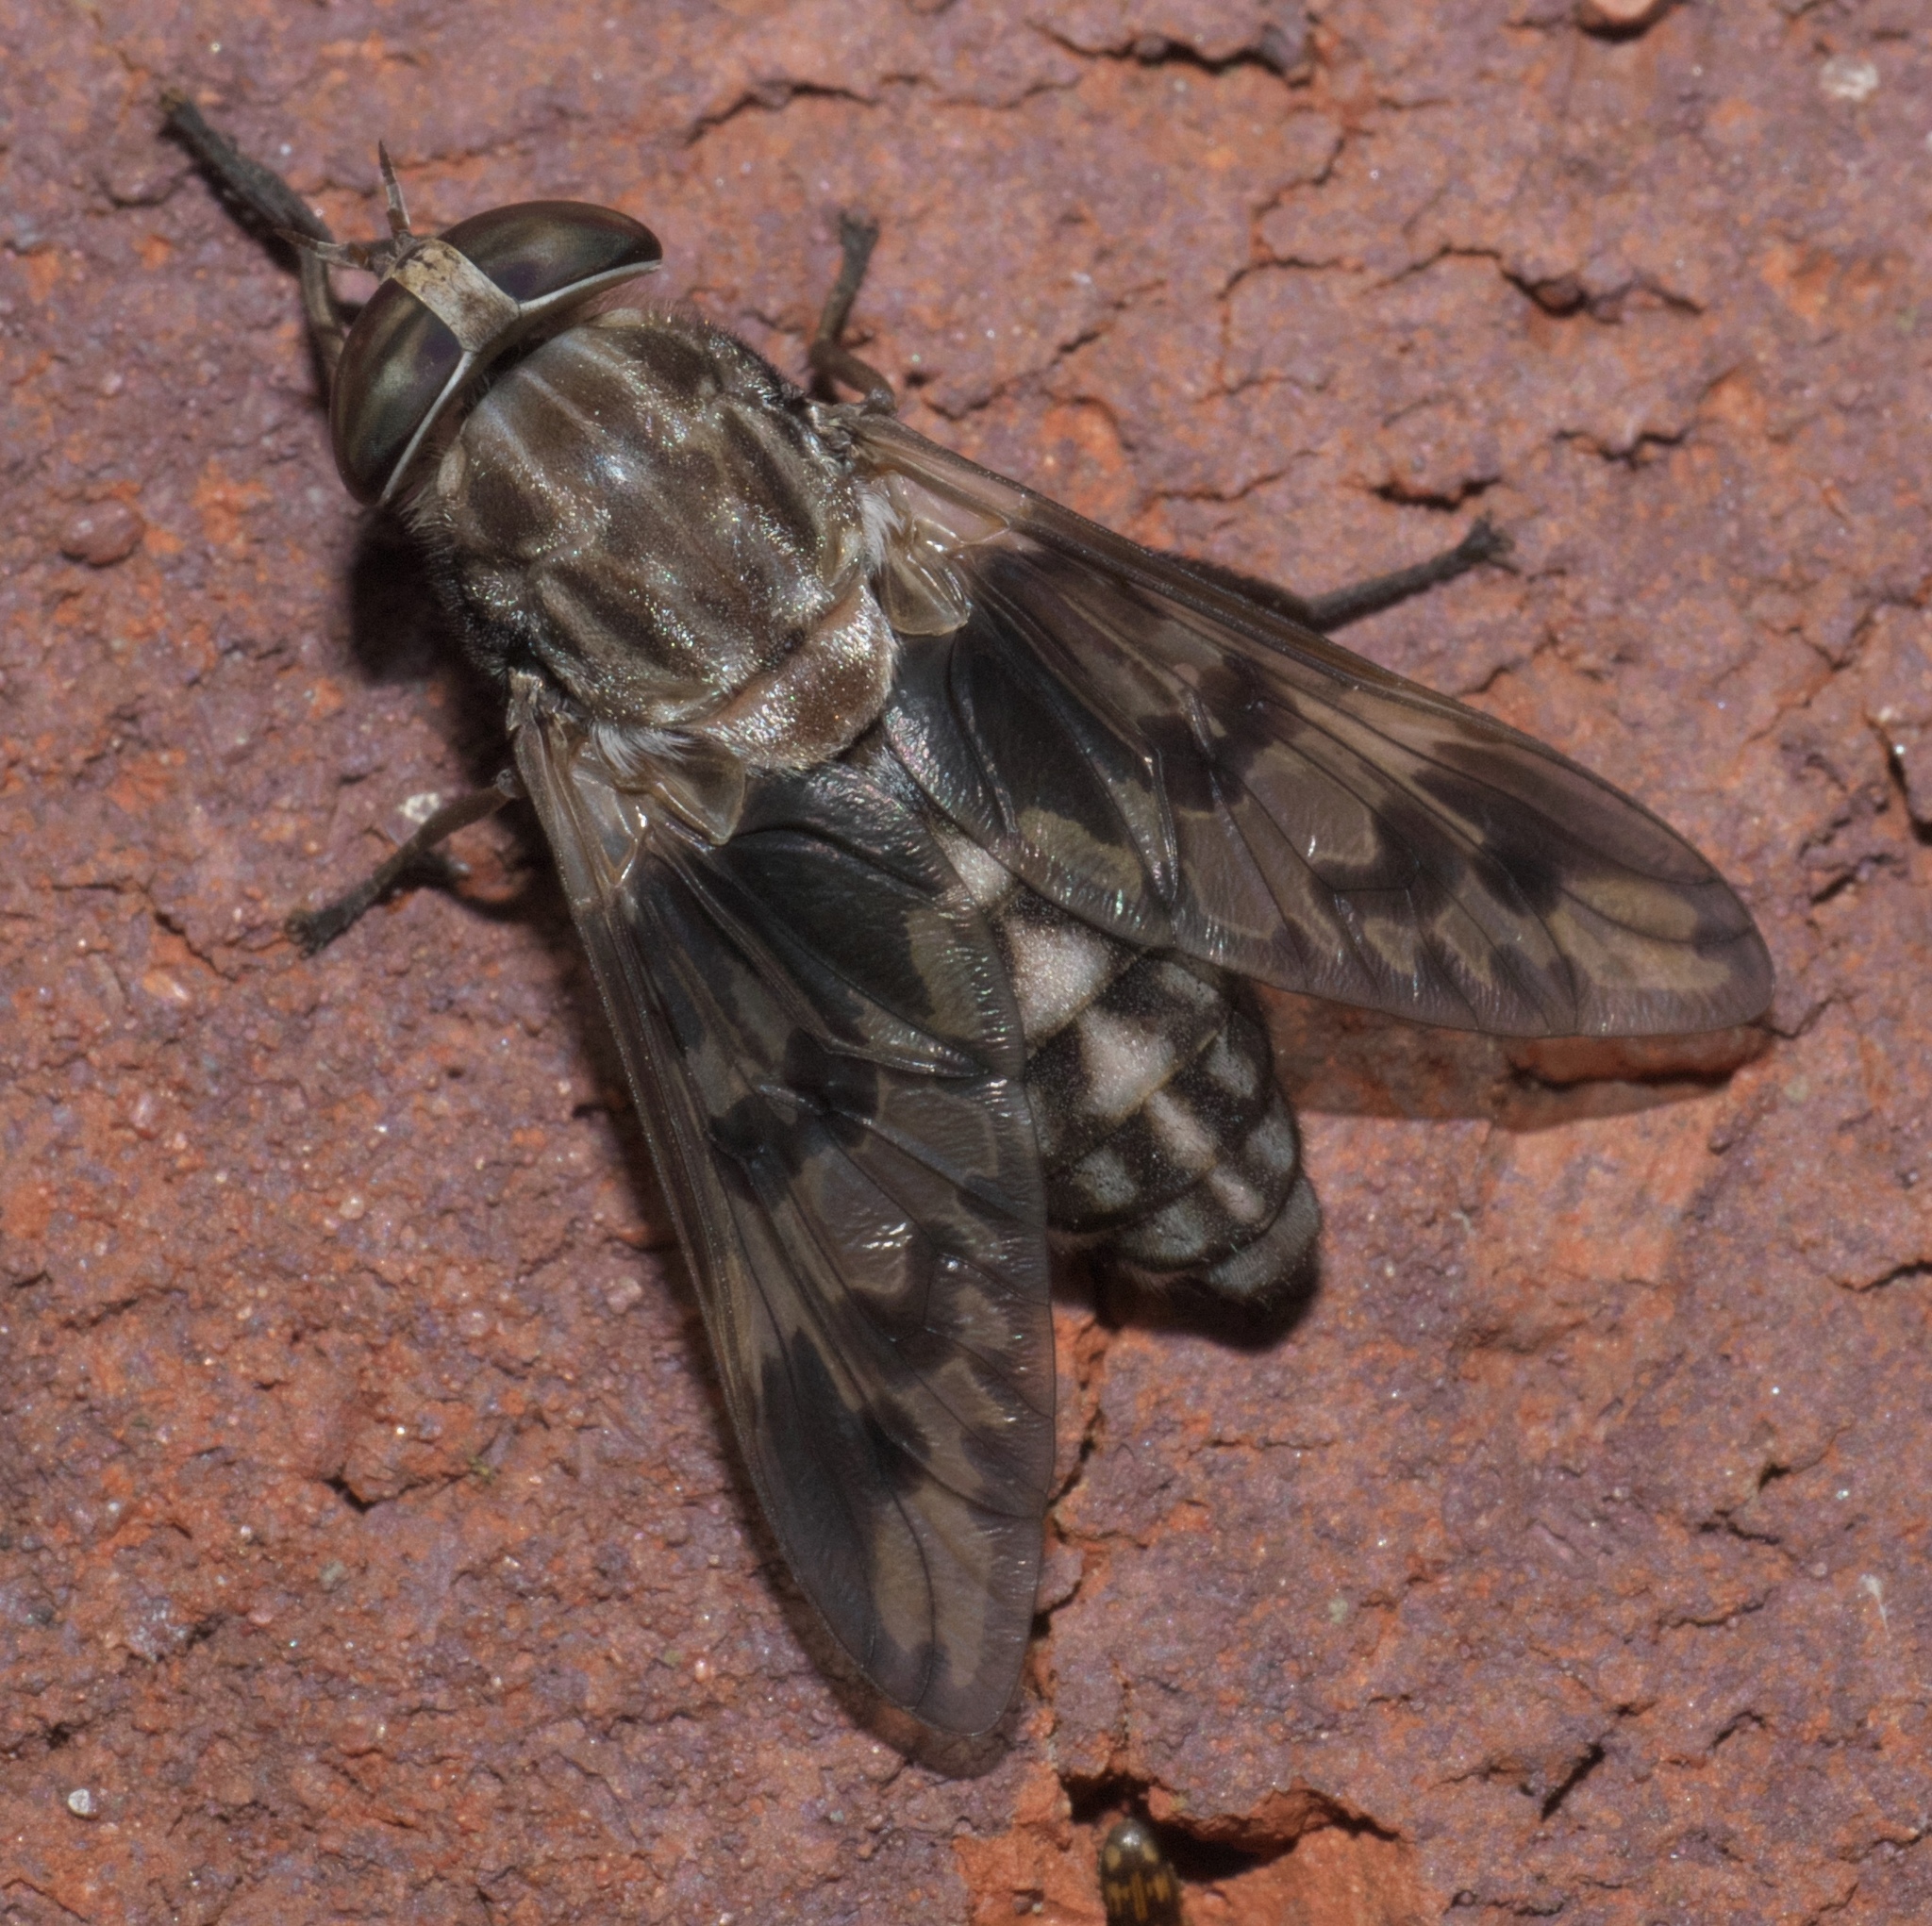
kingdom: Animalia
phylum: Arthropoda
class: Insecta
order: Diptera
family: Tabanidae
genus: Tabanus
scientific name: Tabanus venustus
